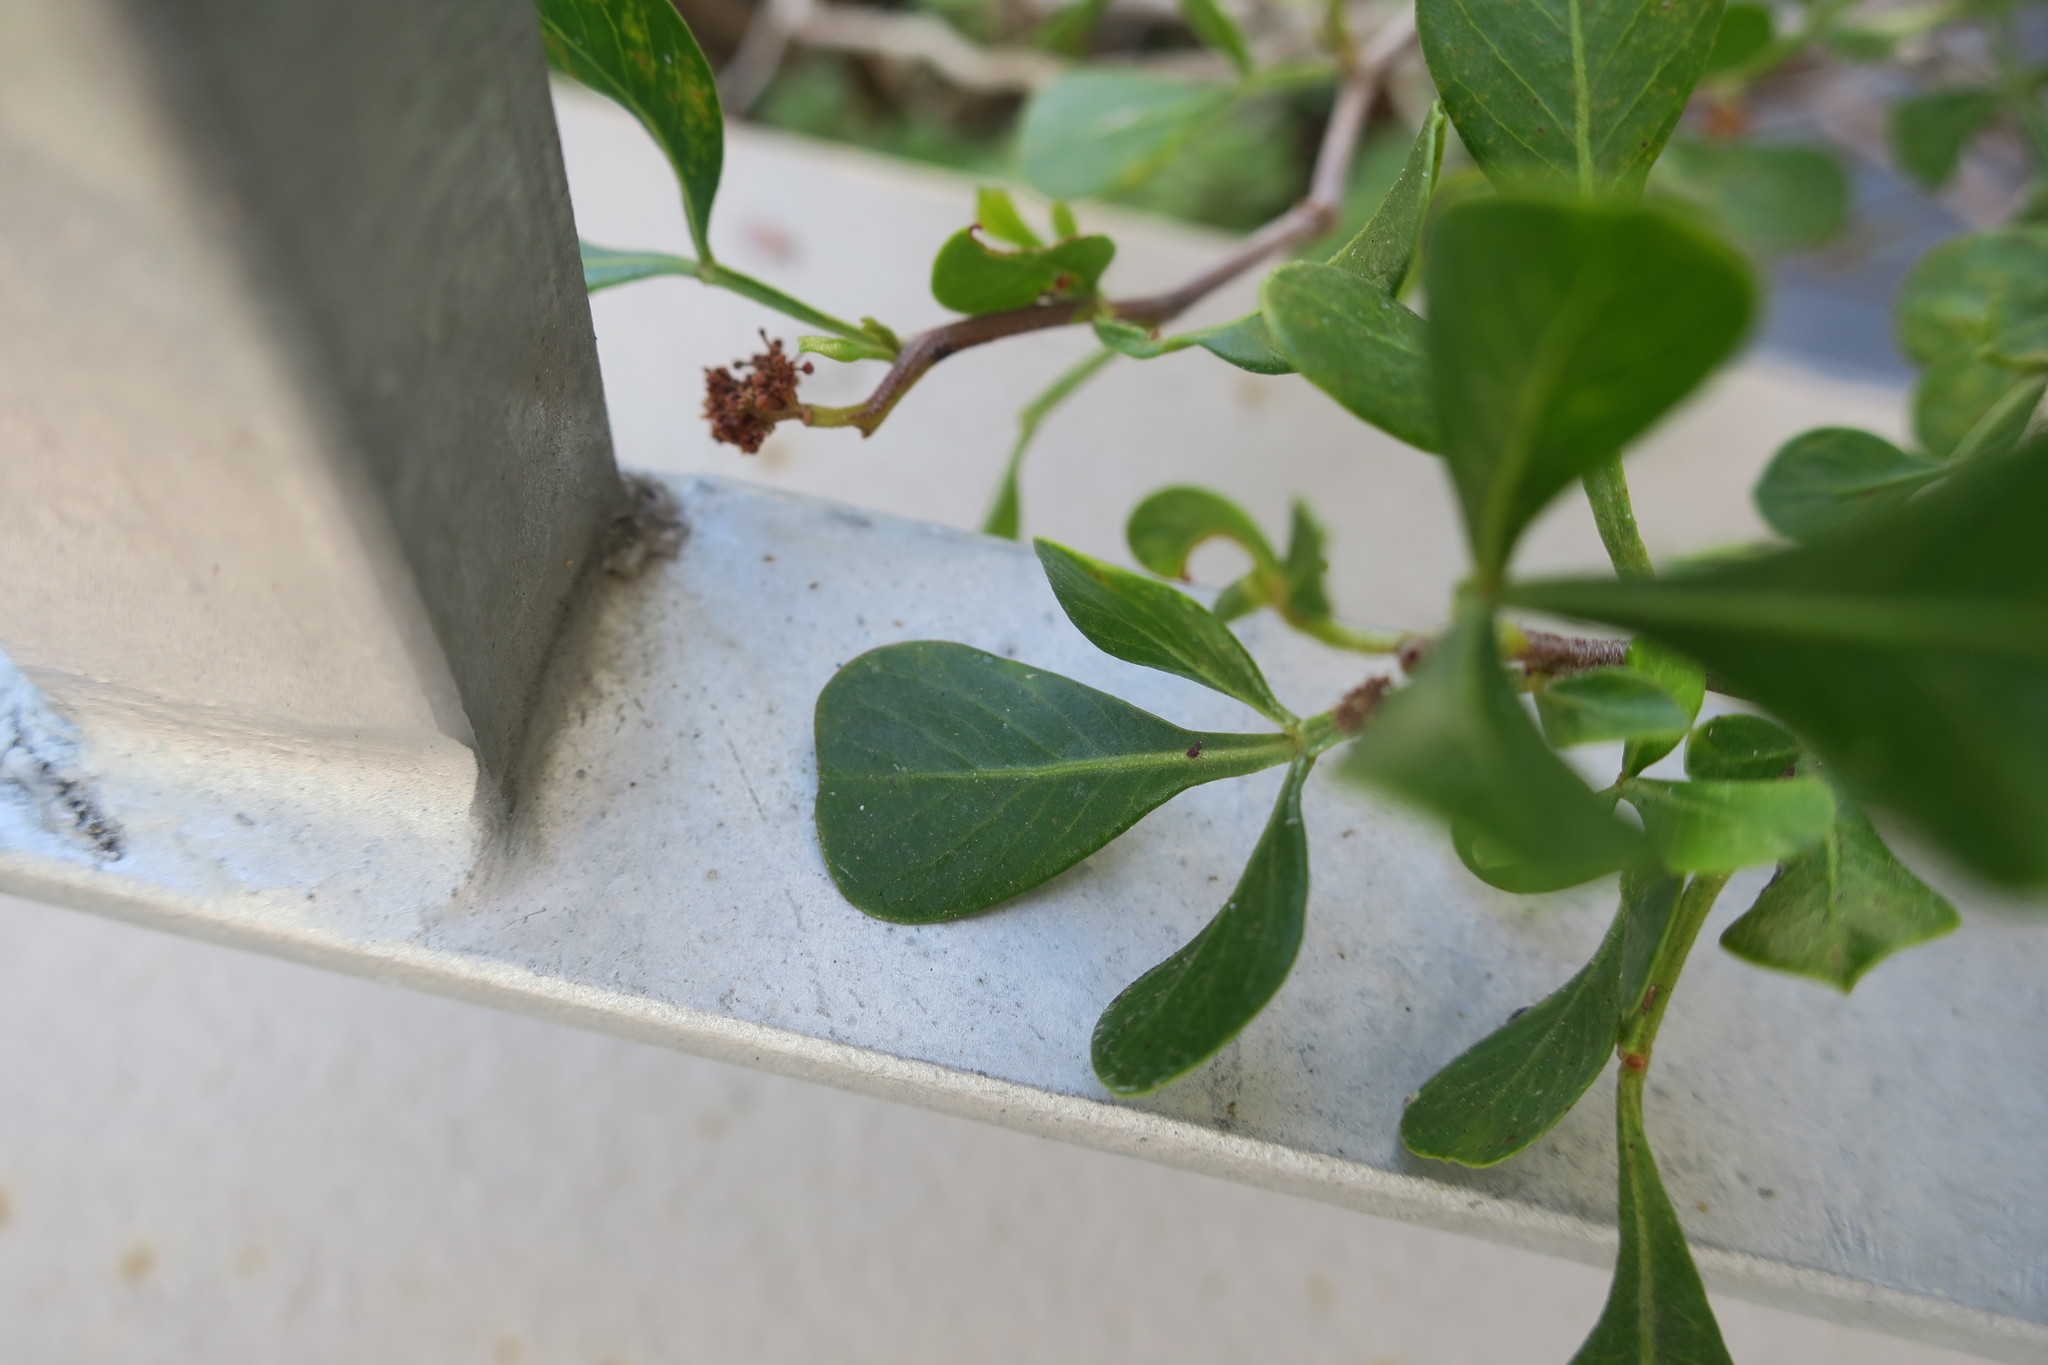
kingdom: Plantae
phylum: Tracheophyta
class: Magnoliopsida
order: Sapindales
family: Anacardiaceae
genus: Searsia
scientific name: Searsia glauca
